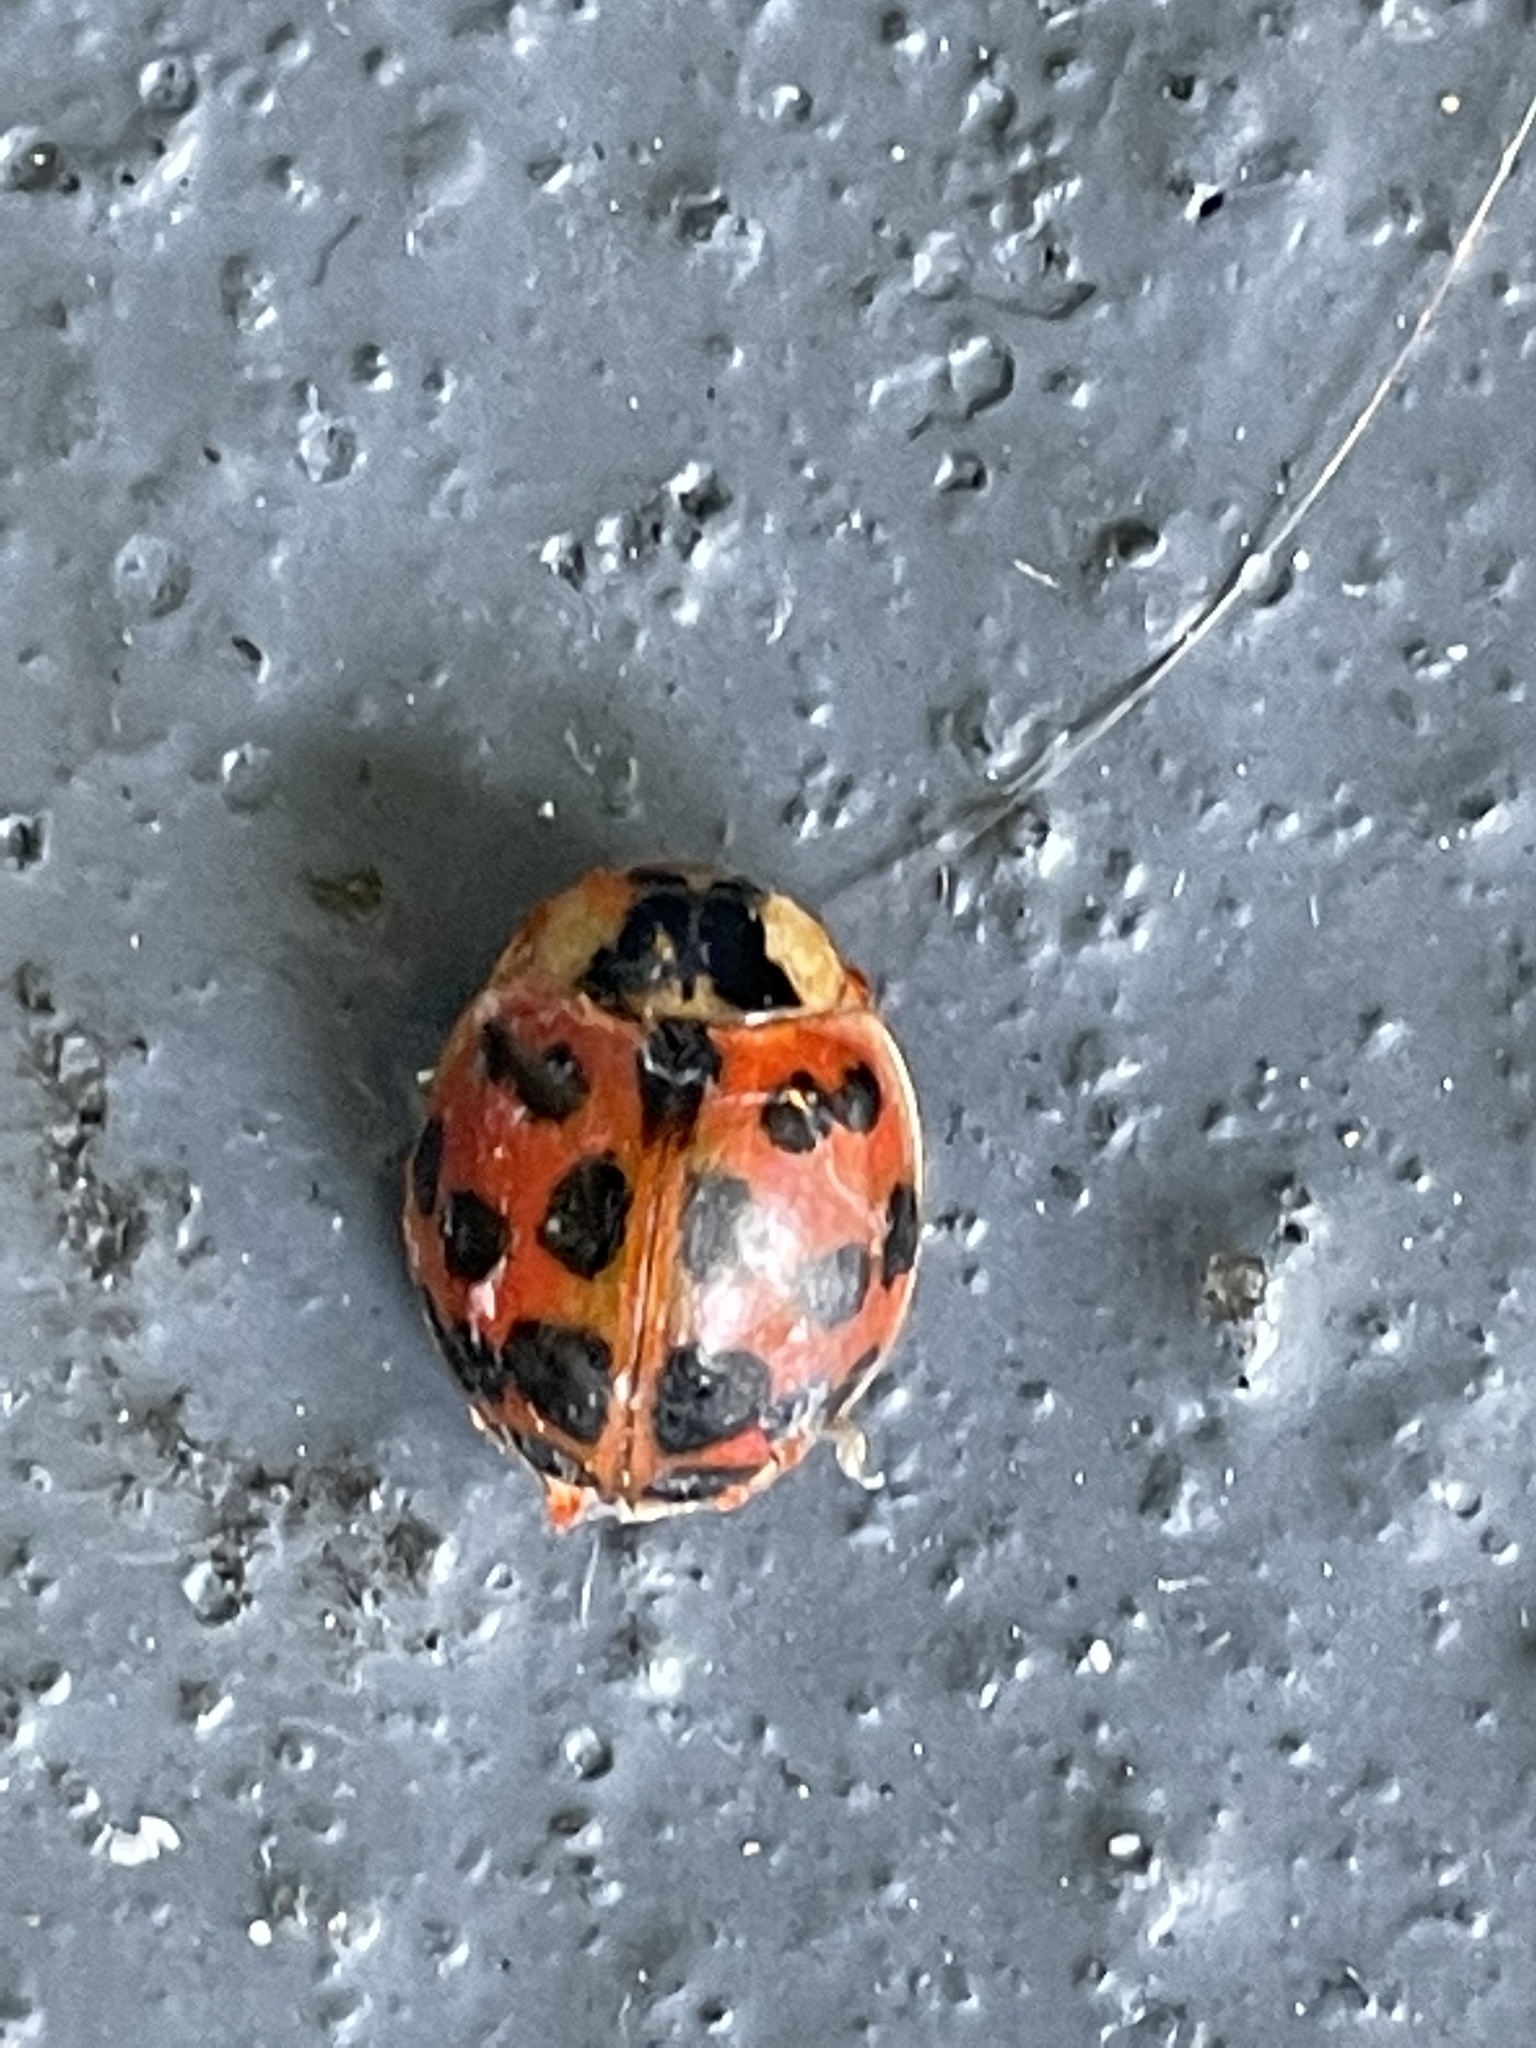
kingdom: Animalia
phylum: Arthropoda
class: Insecta
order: Coleoptera
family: Coccinellidae
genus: Harmonia
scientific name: Harmonia axyridis
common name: Harlequin ladybird
